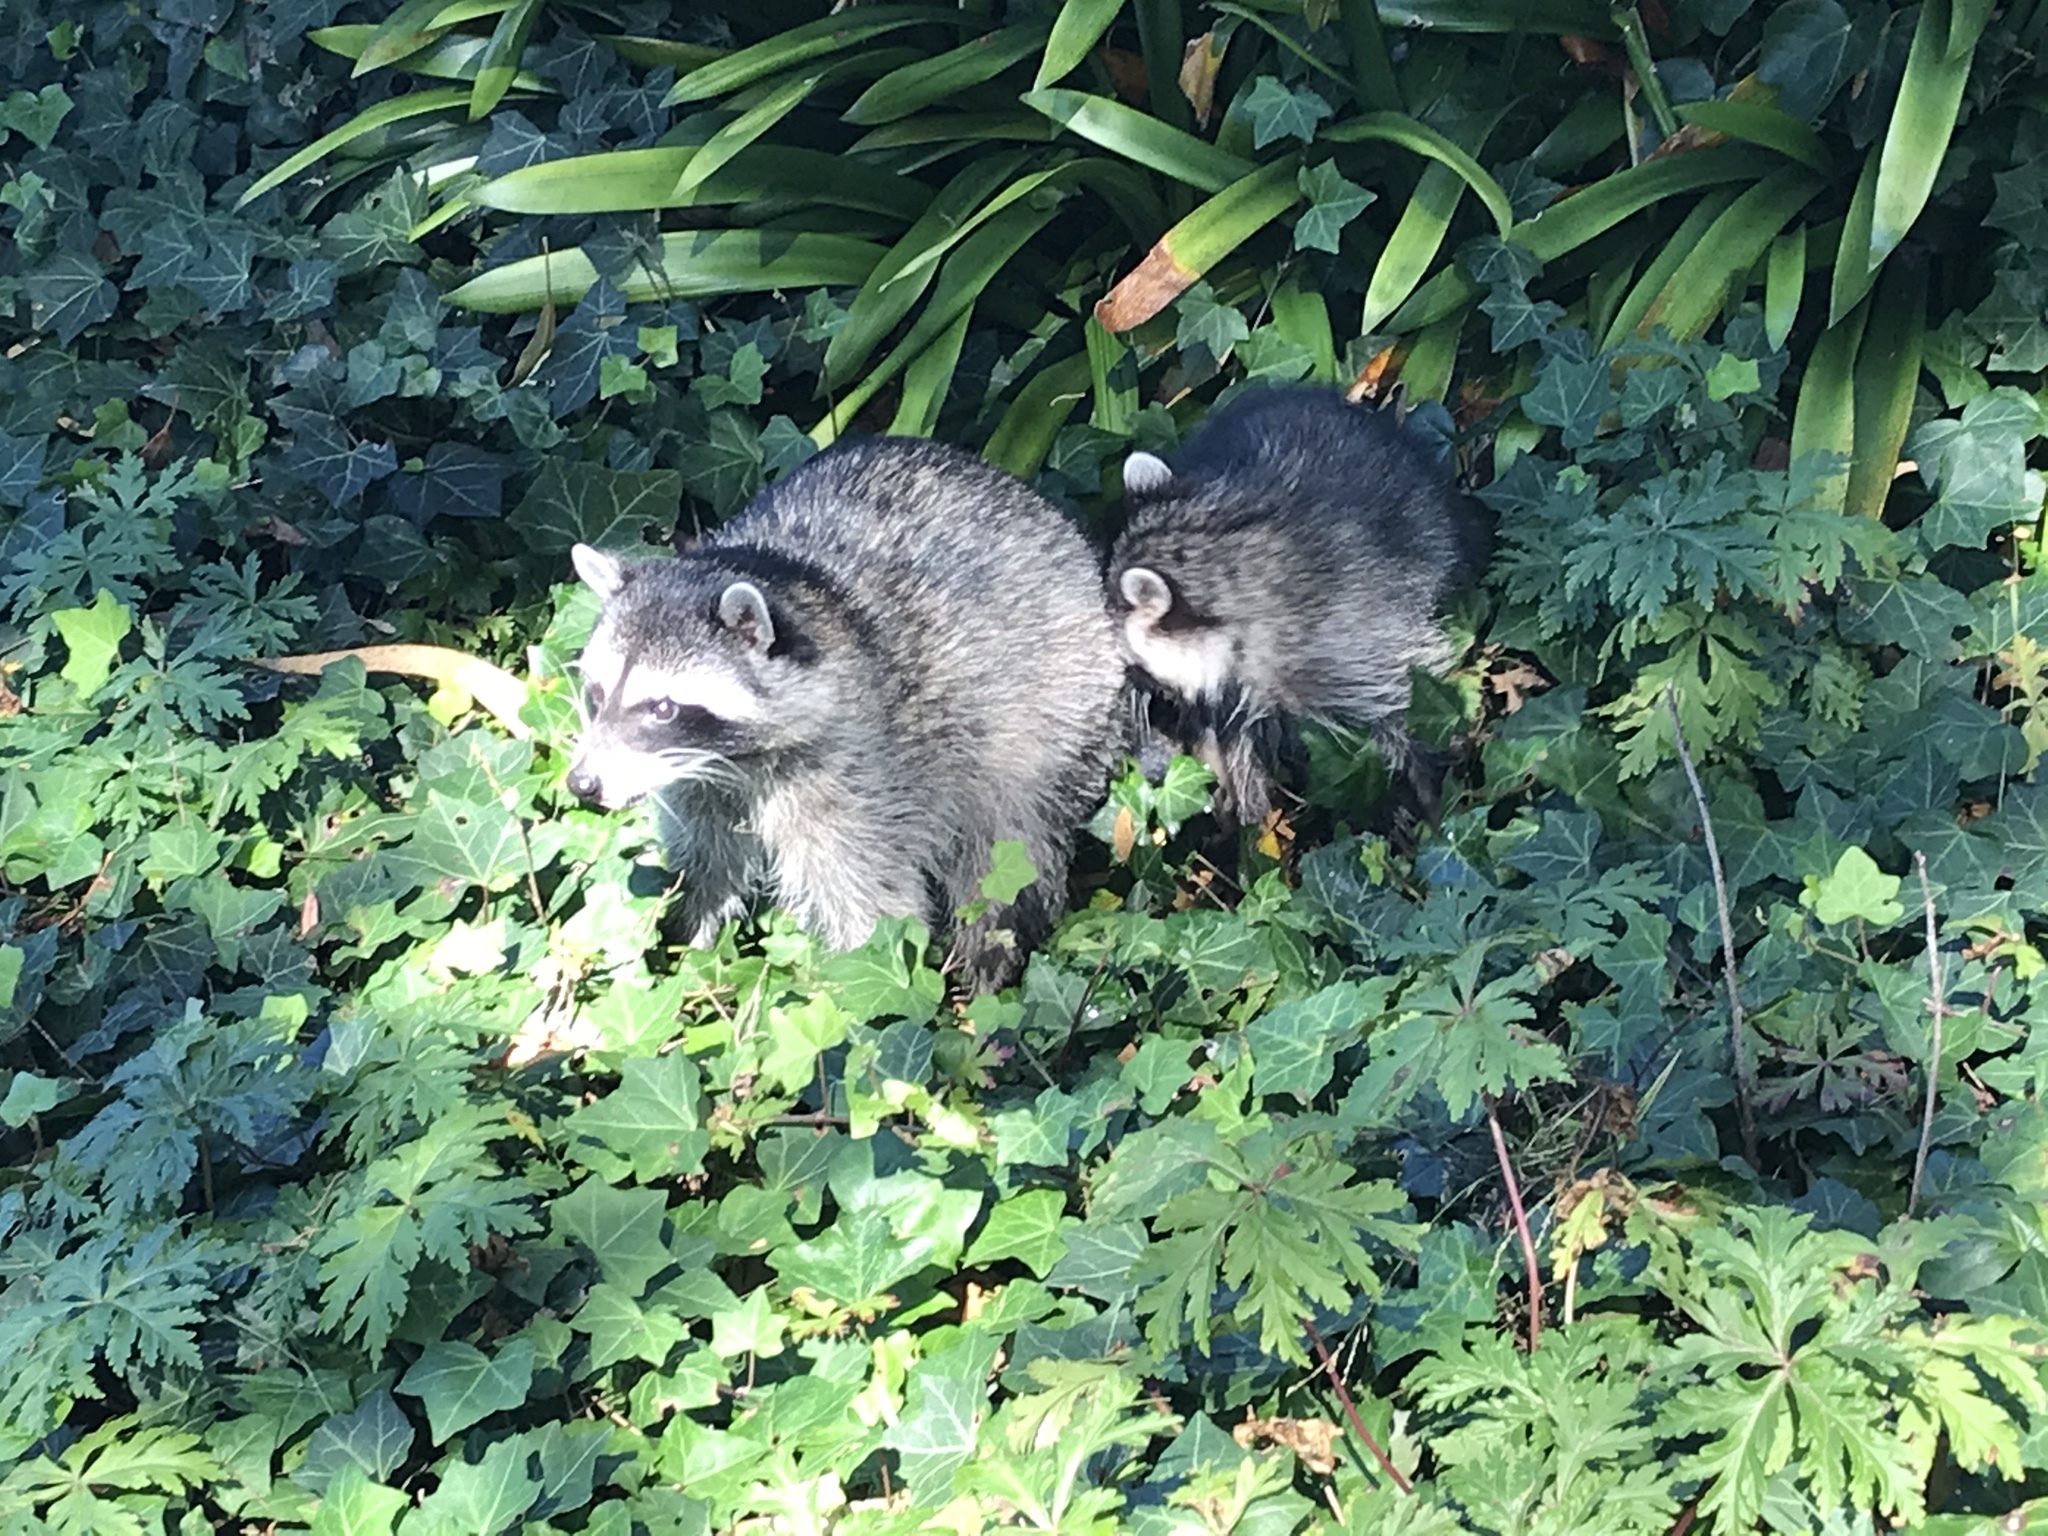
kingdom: Animalia
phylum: Chordata
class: Mammalia
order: Carnivora
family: Procyonidae
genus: Procyon
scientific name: Procyon lotor
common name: Raccoon
